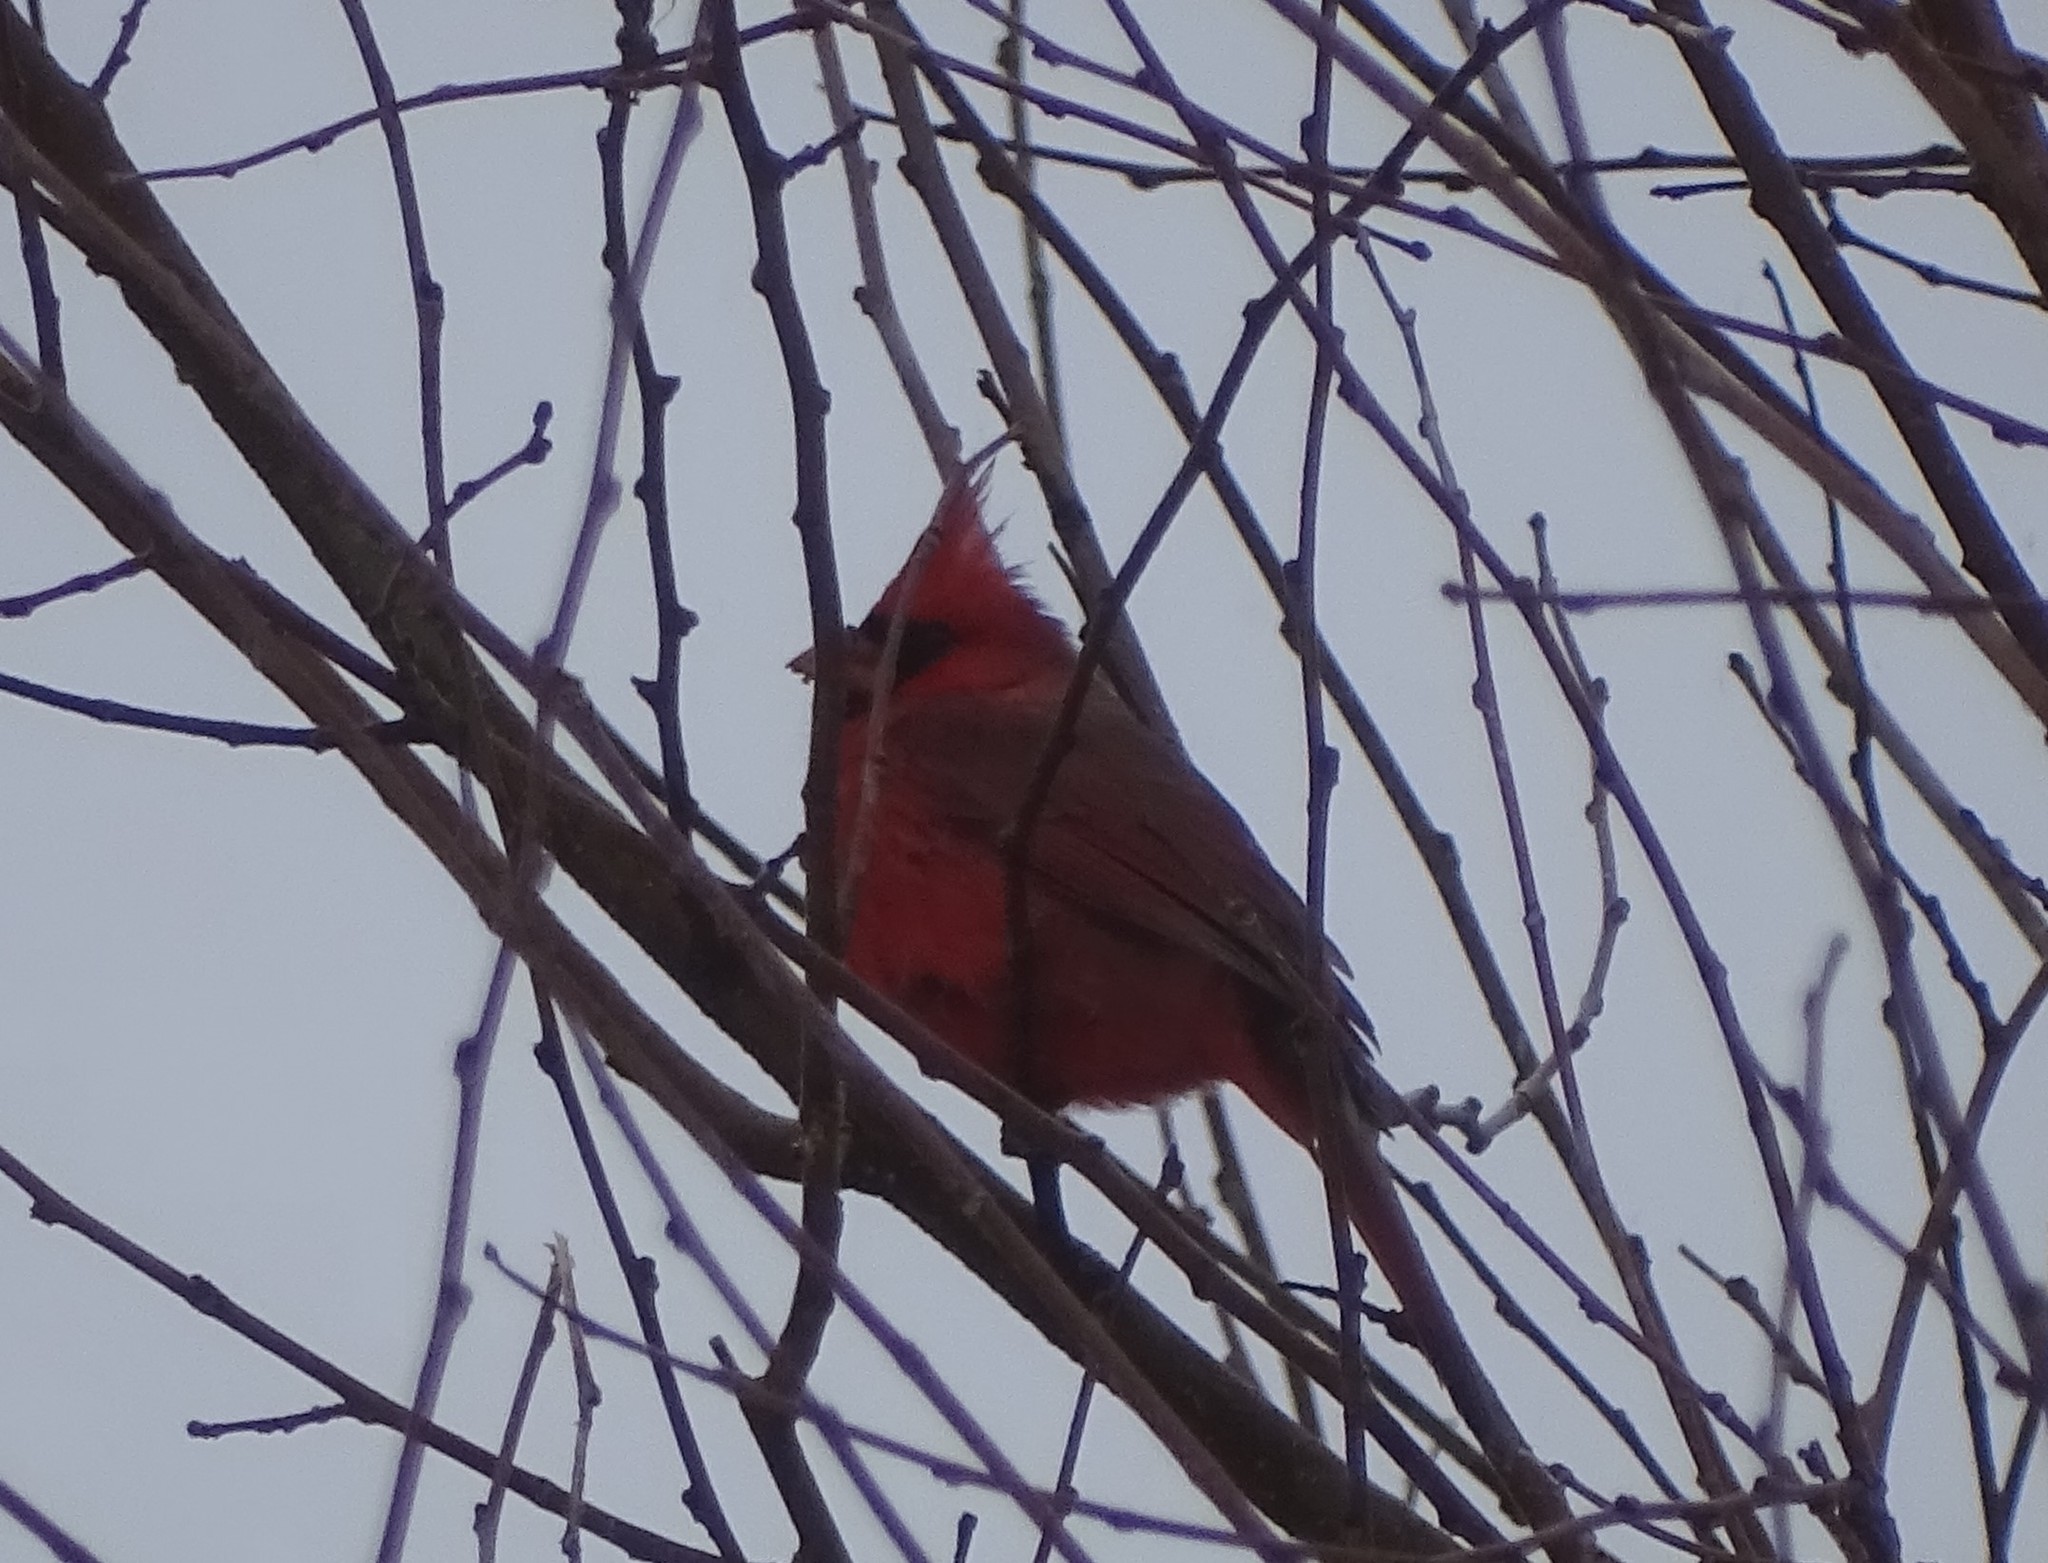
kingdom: Animalia
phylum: Chordata
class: Aves
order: Passeriformes
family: Cardinalidae
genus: Cardinalis
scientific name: Cardinalis cardinalis
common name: Northern cardinal
